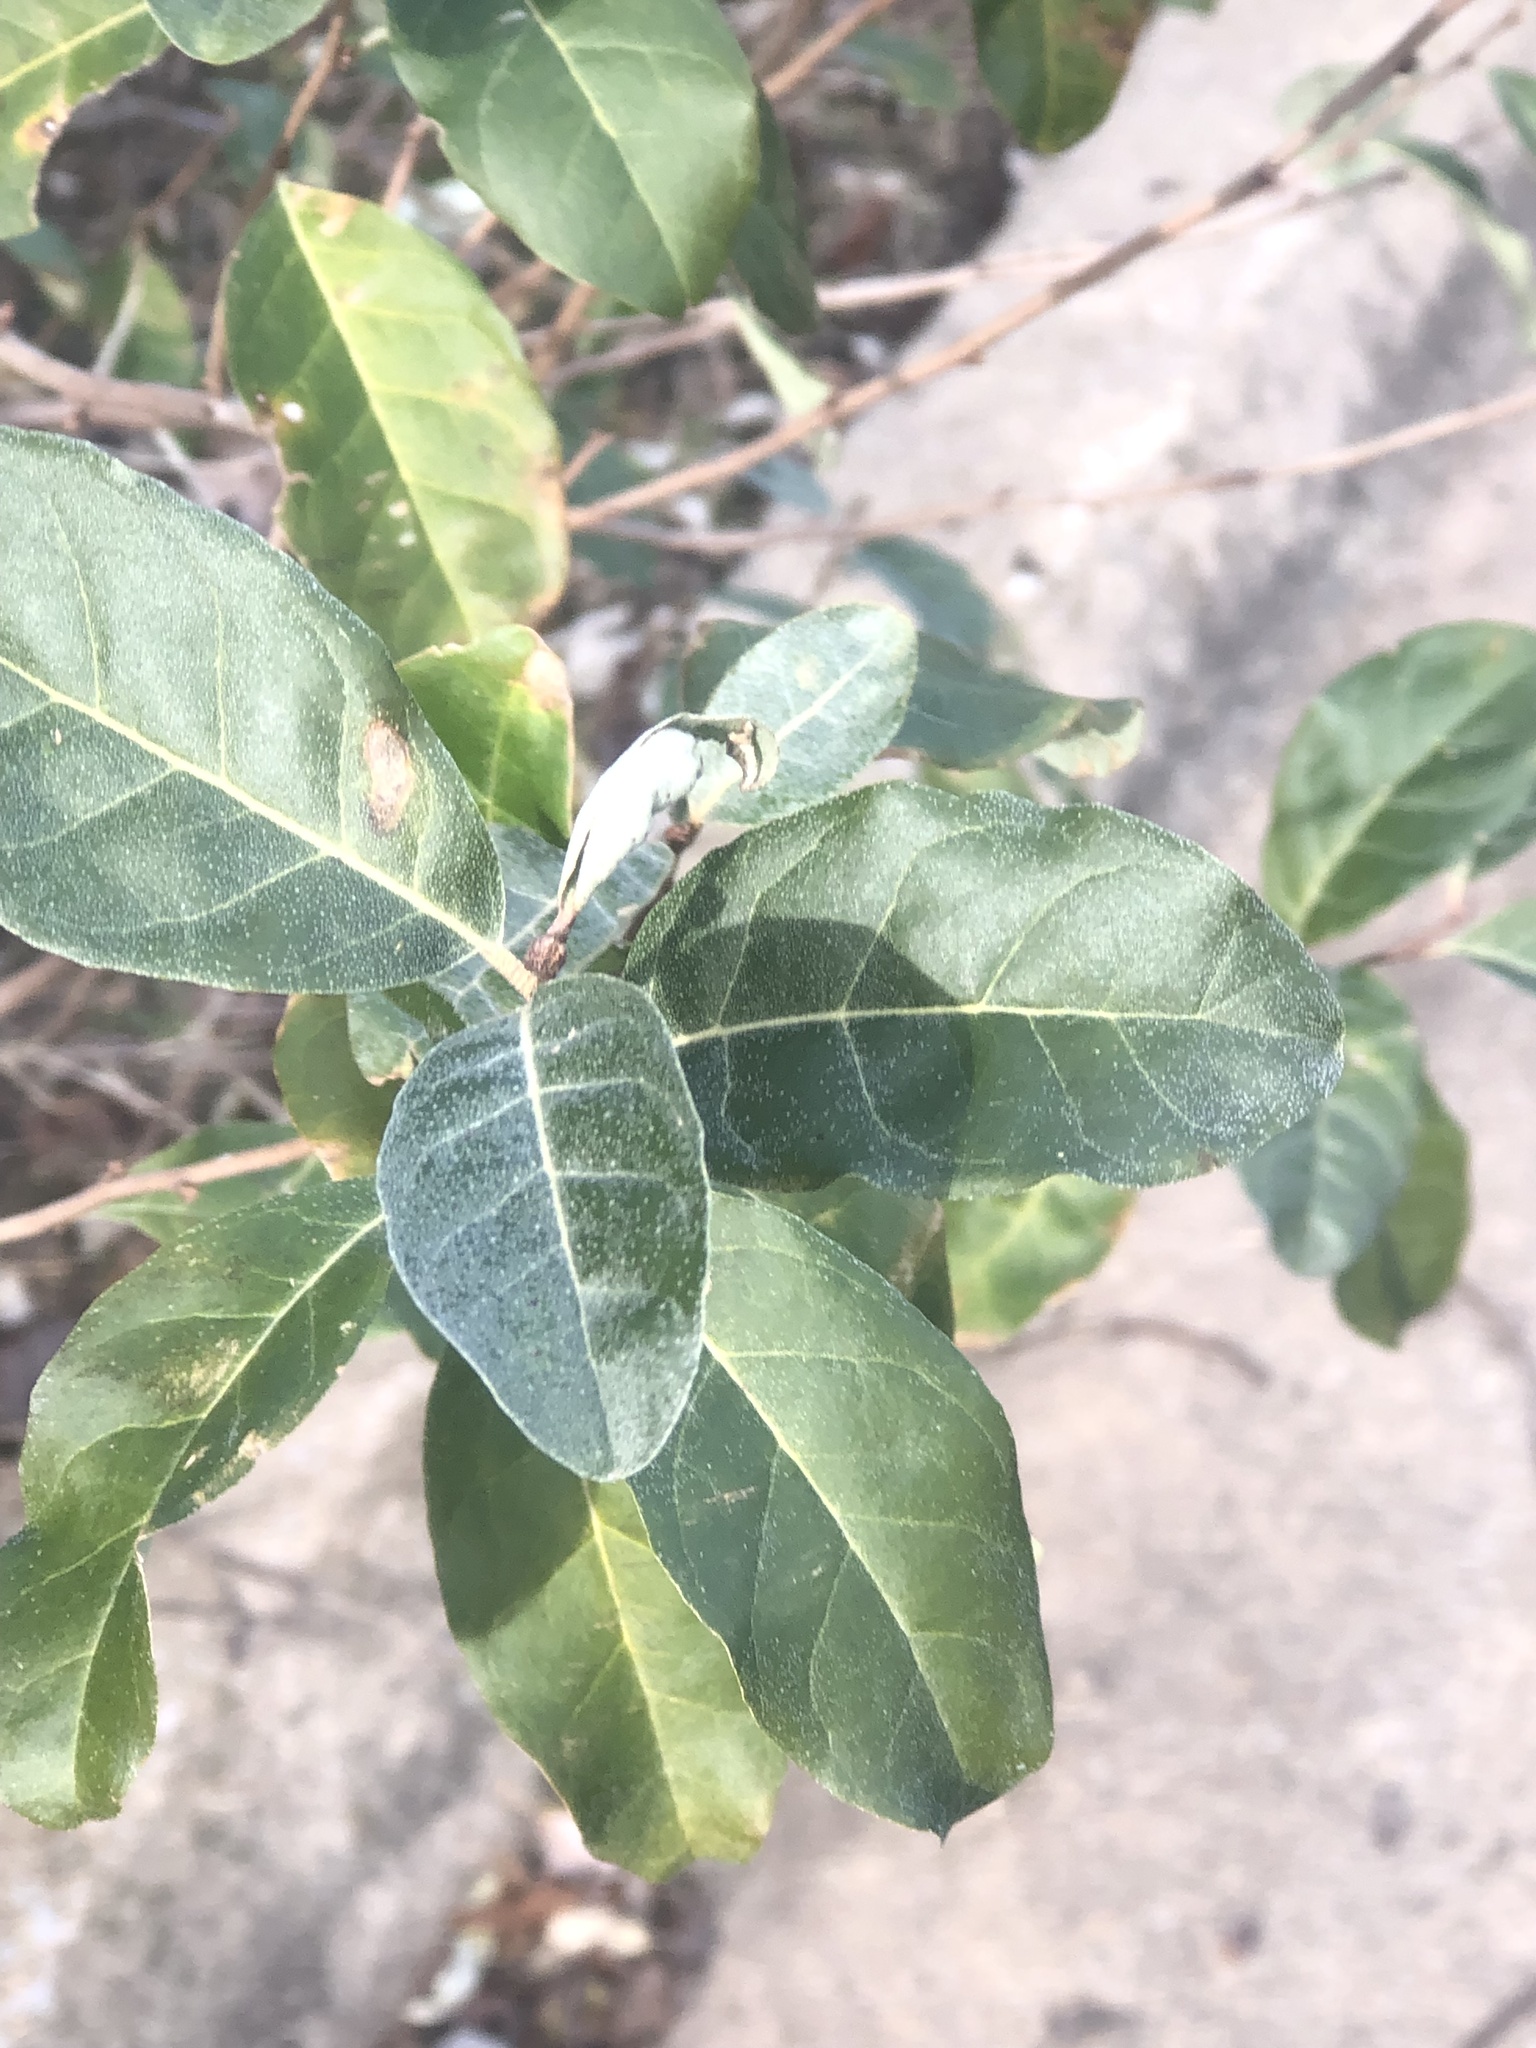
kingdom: Plantae
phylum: Tracheophyta
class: Magnoliopsida
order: Rosales
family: Elaeagnaceae
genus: Elaeagnus
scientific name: Elaeagnus umbellata
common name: Autumn olive
